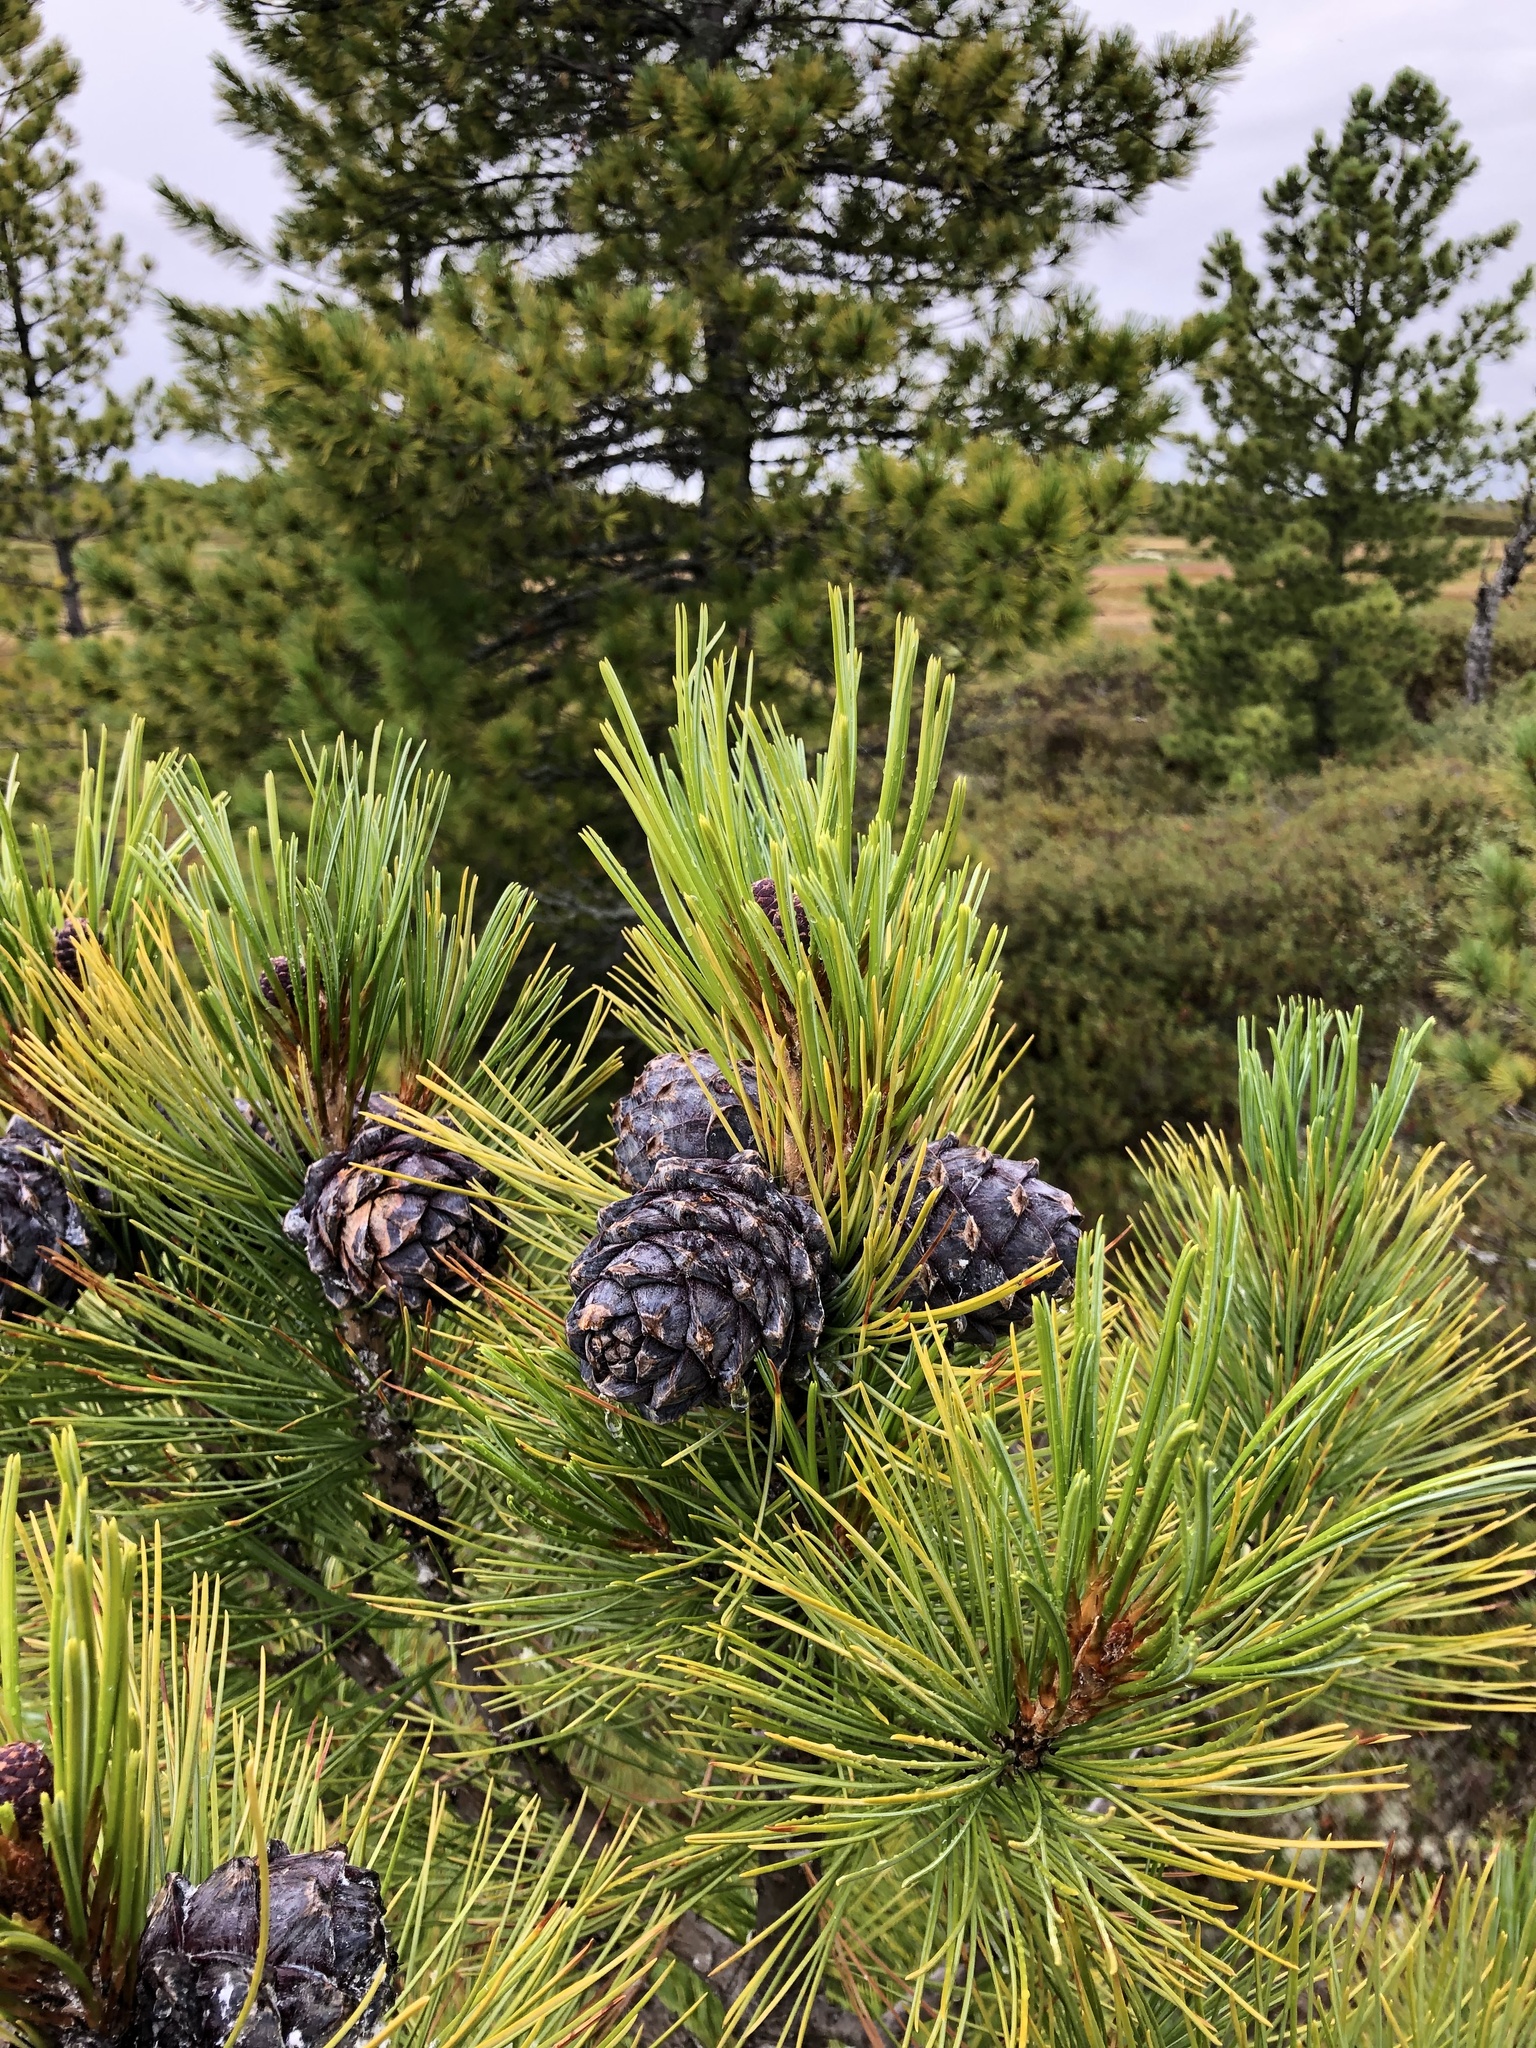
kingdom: Plantae
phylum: Tracheophyta
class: Pinopsida
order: Pinales
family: Pinaceae
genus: Pinus
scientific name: Pinus sibirica
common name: Siberian pine
